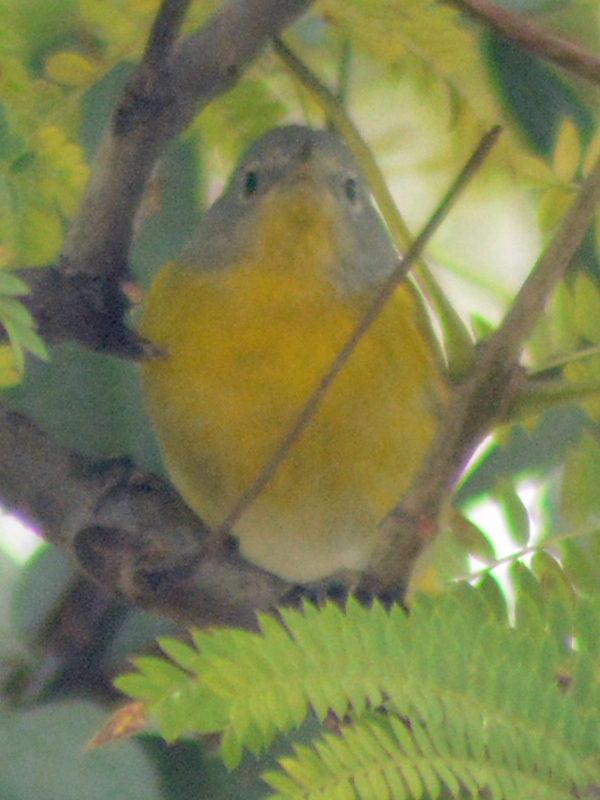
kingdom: Animalia
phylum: Chordata
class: Aves
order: Passeriformes
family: Parulidae
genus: Leiothlypis
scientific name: Leiothlypis ruficapilla
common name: Nashville warbler
